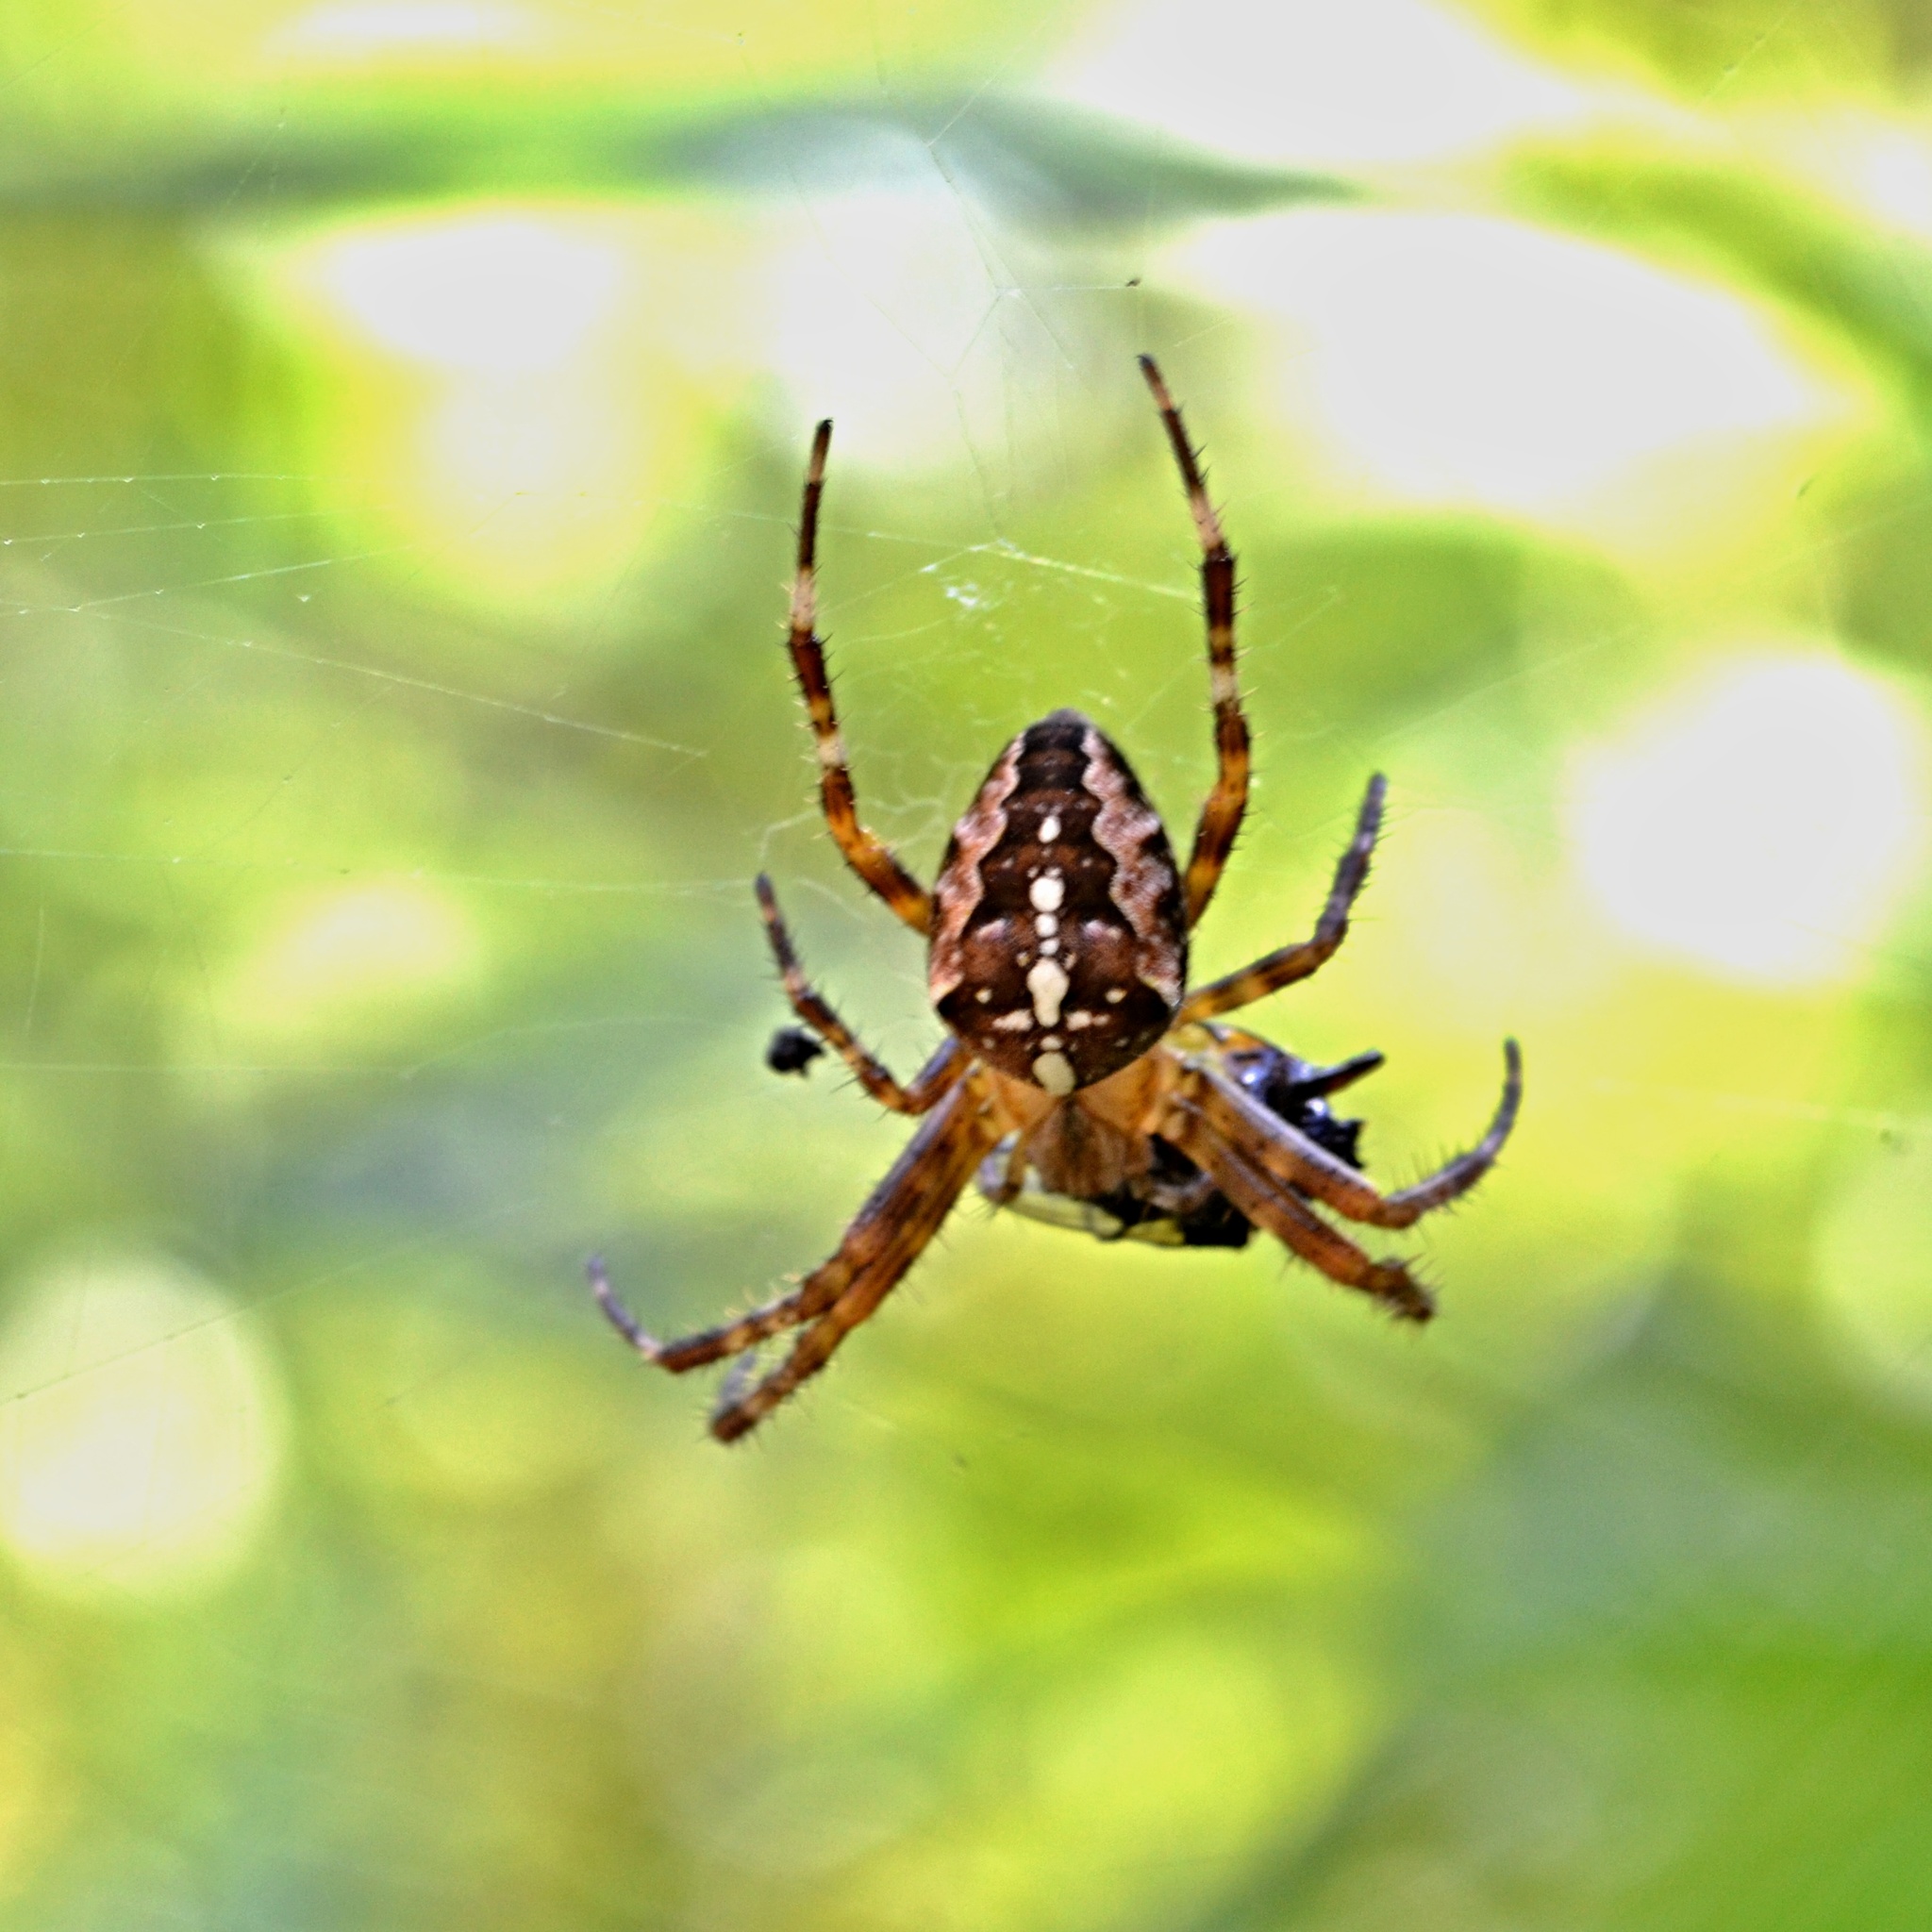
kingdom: Animalia
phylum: Arthropoda
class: Arachnida
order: Araneae
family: Araneidae
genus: Araneus
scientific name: Araneus diadematus
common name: Cross orbweaver
